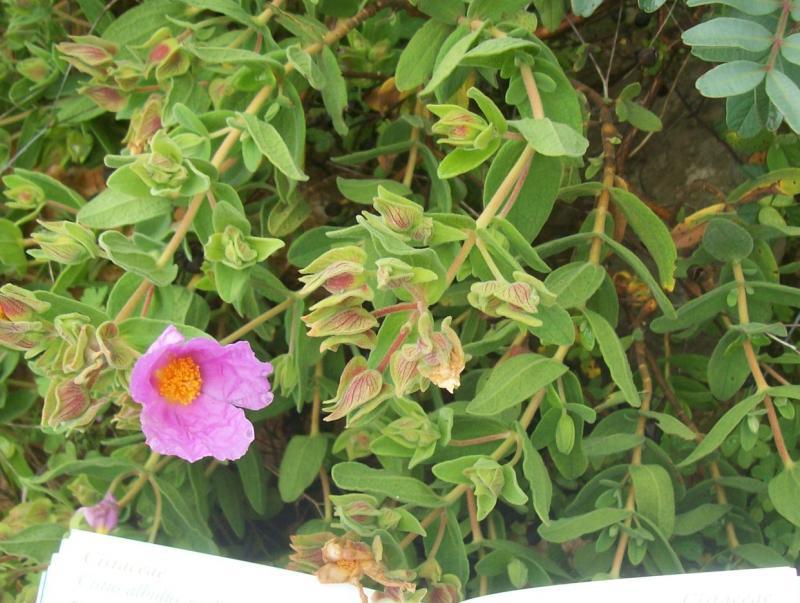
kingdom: Plantae
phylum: Tracheophyta
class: Magnoliopsida
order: Malvales
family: Cistaceae
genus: Cistus
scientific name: Cistus albidus
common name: White-leaf rock-rose
